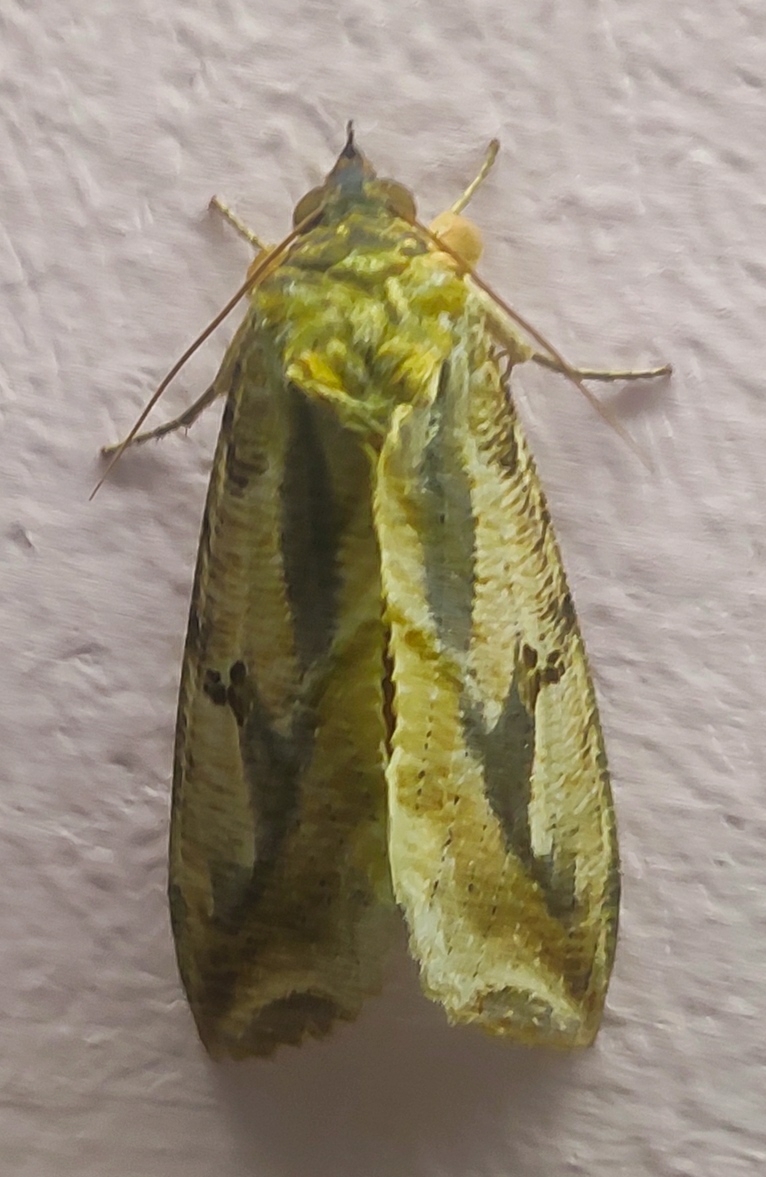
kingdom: Animalia
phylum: Arthropoda
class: Insecta
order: Lepidoptera
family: Erebidae
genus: Eudocima
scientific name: Eudocima materna
